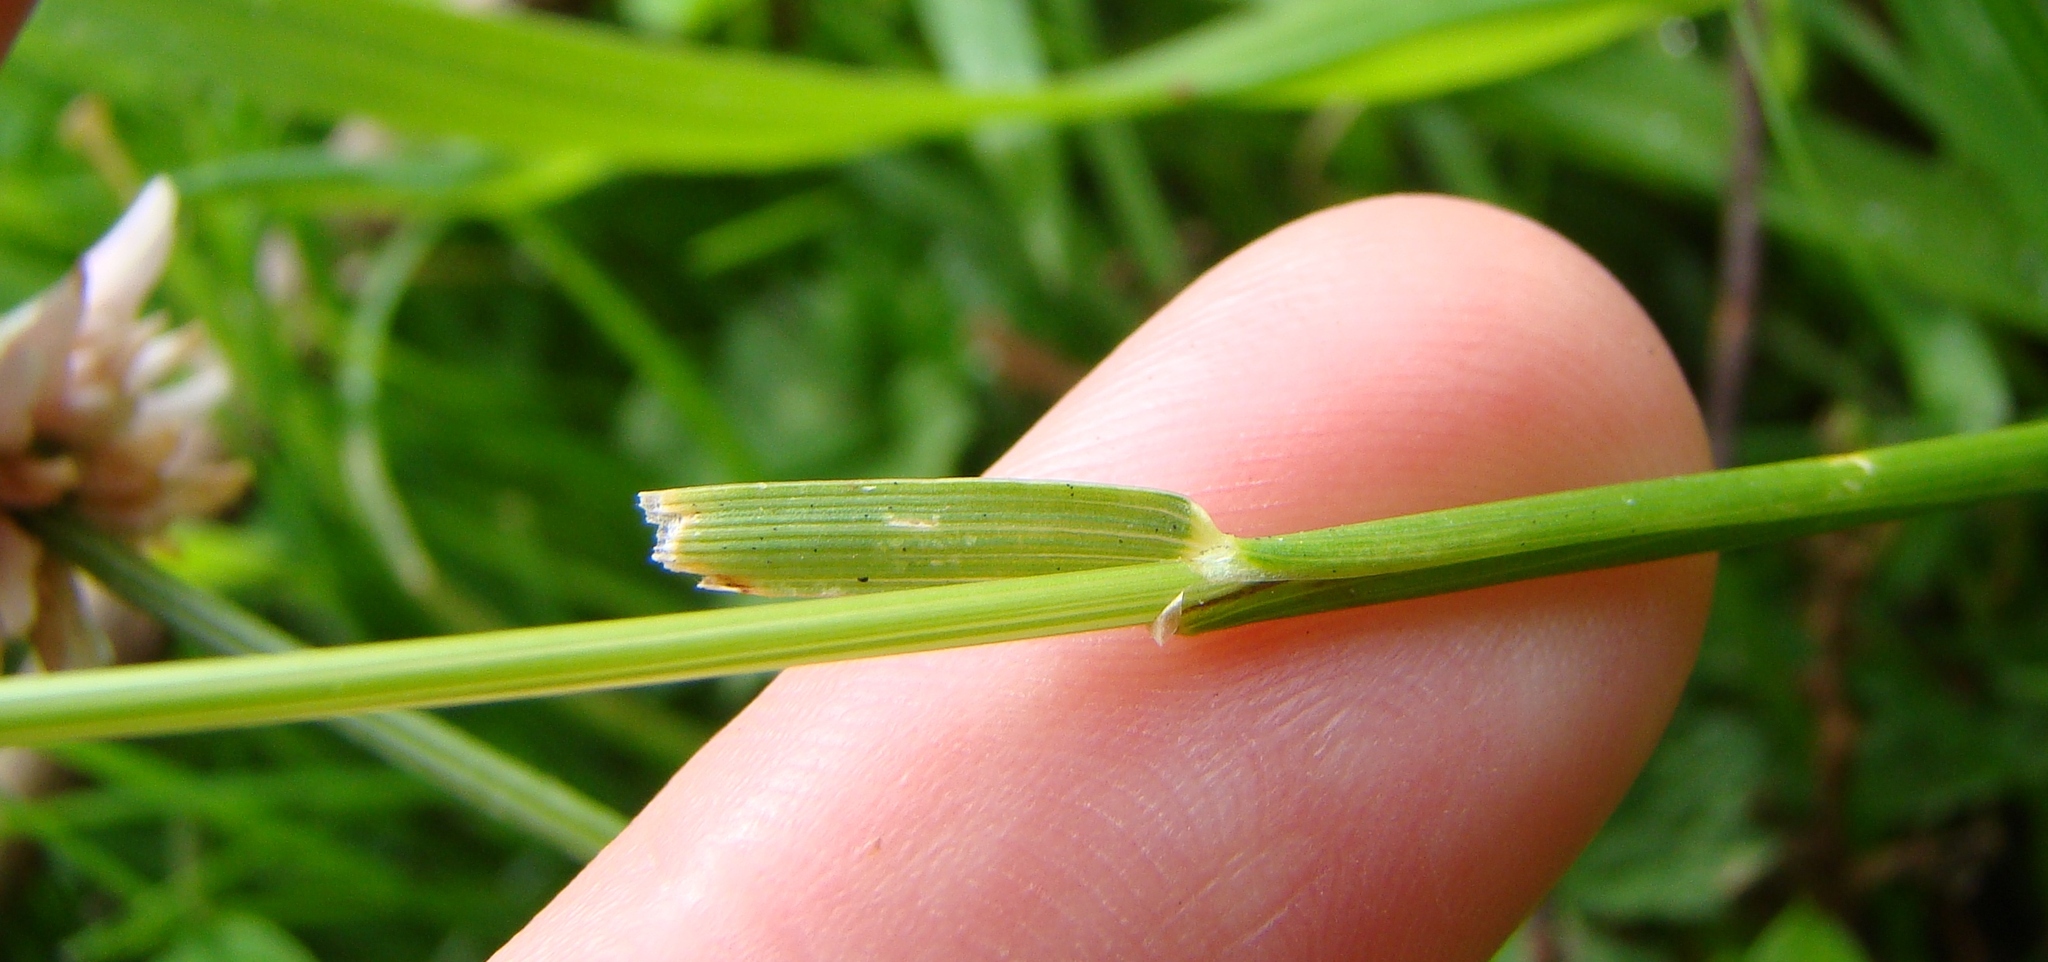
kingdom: Plantae
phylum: Tracheophyta
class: Liliopsida
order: Poales
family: Poaceae
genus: Cynosurus
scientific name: Cynosurus cristatus
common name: Crested dog's-tail
